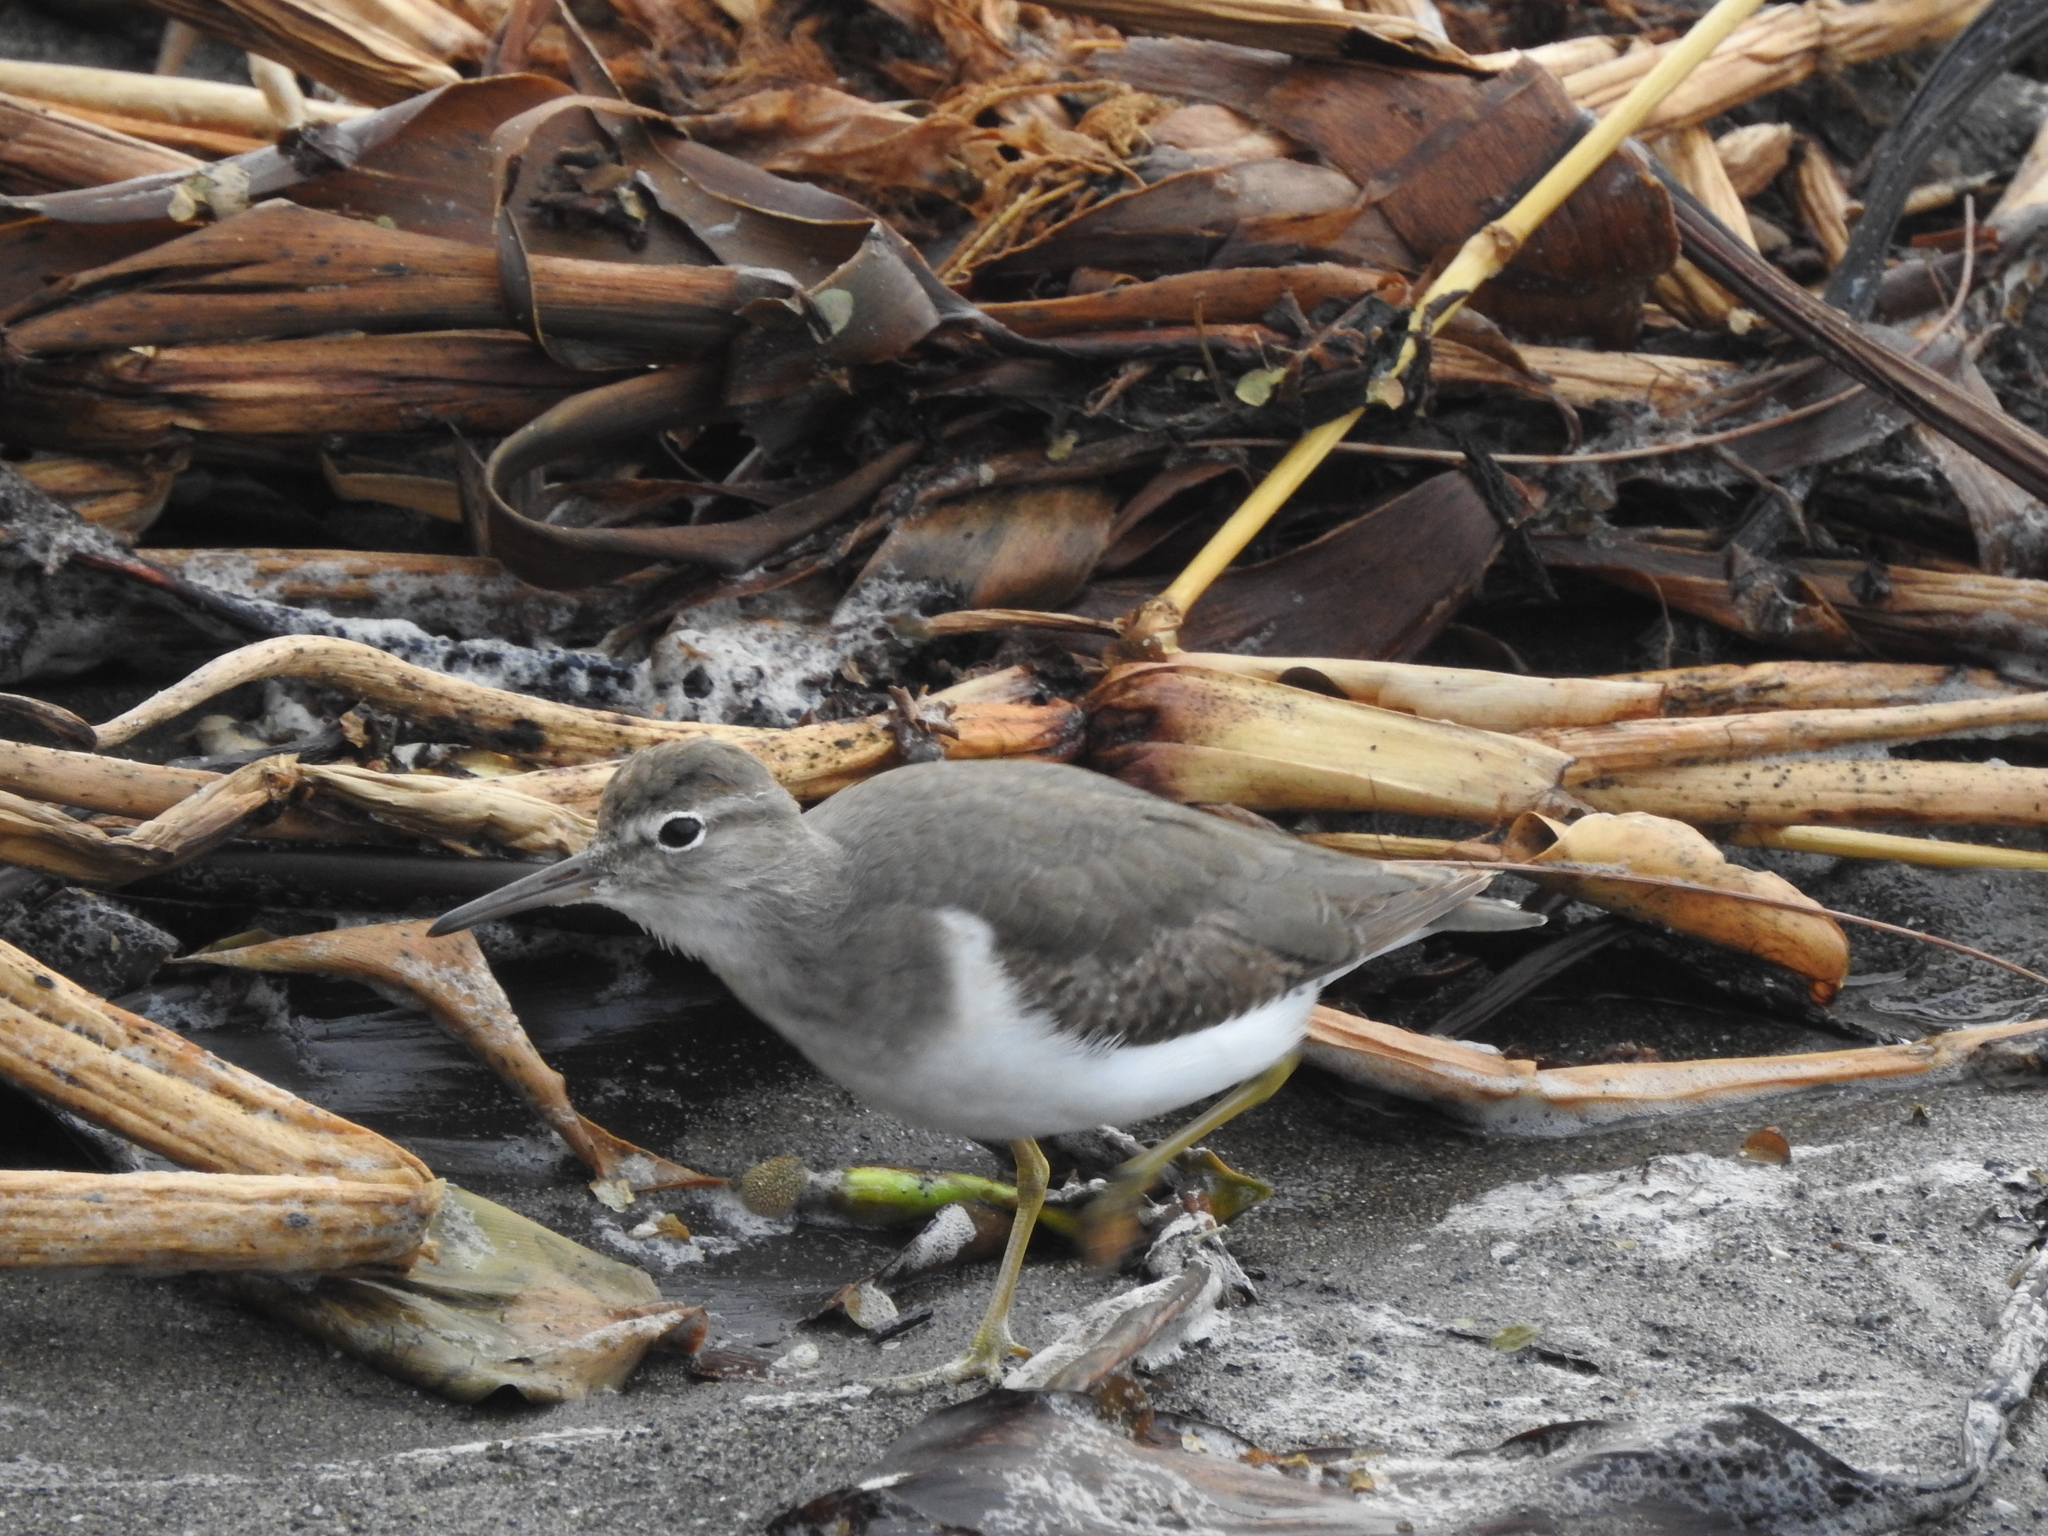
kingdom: Animalia
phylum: Chordata
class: Aves
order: Charadriiformes
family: Scolopacidae
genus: Actitis
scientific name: Actitis macularius
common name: Spotted sandpiper
